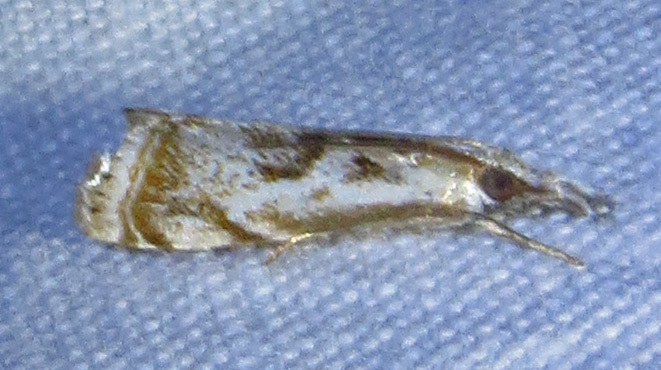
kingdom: Animalia
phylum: Arthropoda
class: Insecta
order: Lepidoptera
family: Crambidae
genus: Microcrambus
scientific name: Microcrambus elegans
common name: Elegant grass-veneer
